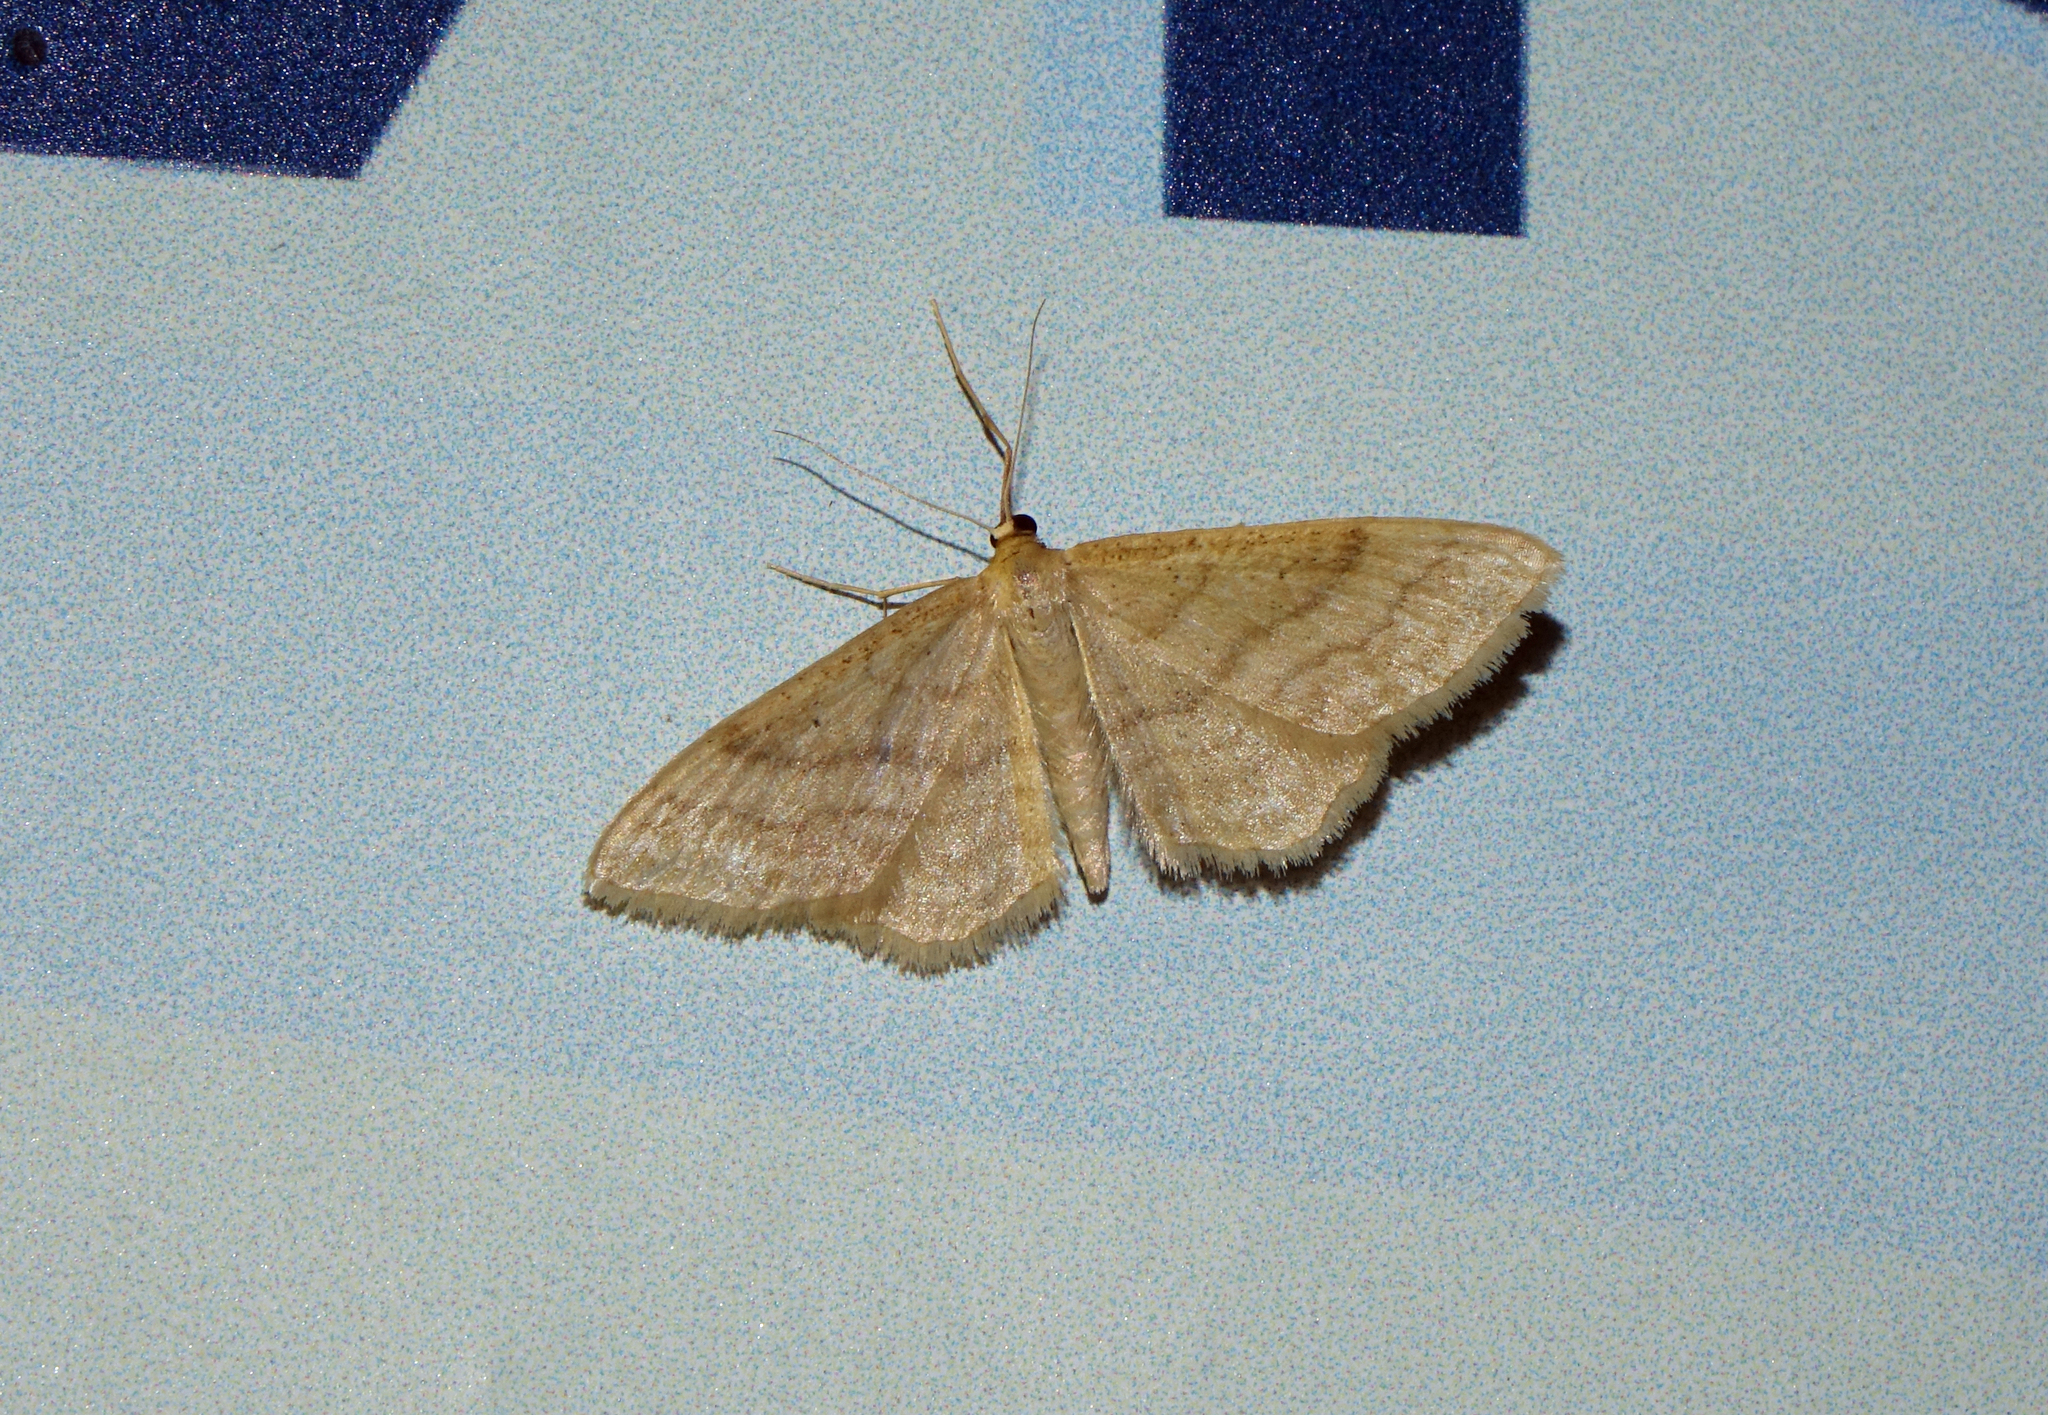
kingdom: Animalia
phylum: Arthropoda
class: Insecta
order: Lepidoptera
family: Geometridae
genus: Idaea
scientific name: Idaea ochrata
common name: Bright wave
